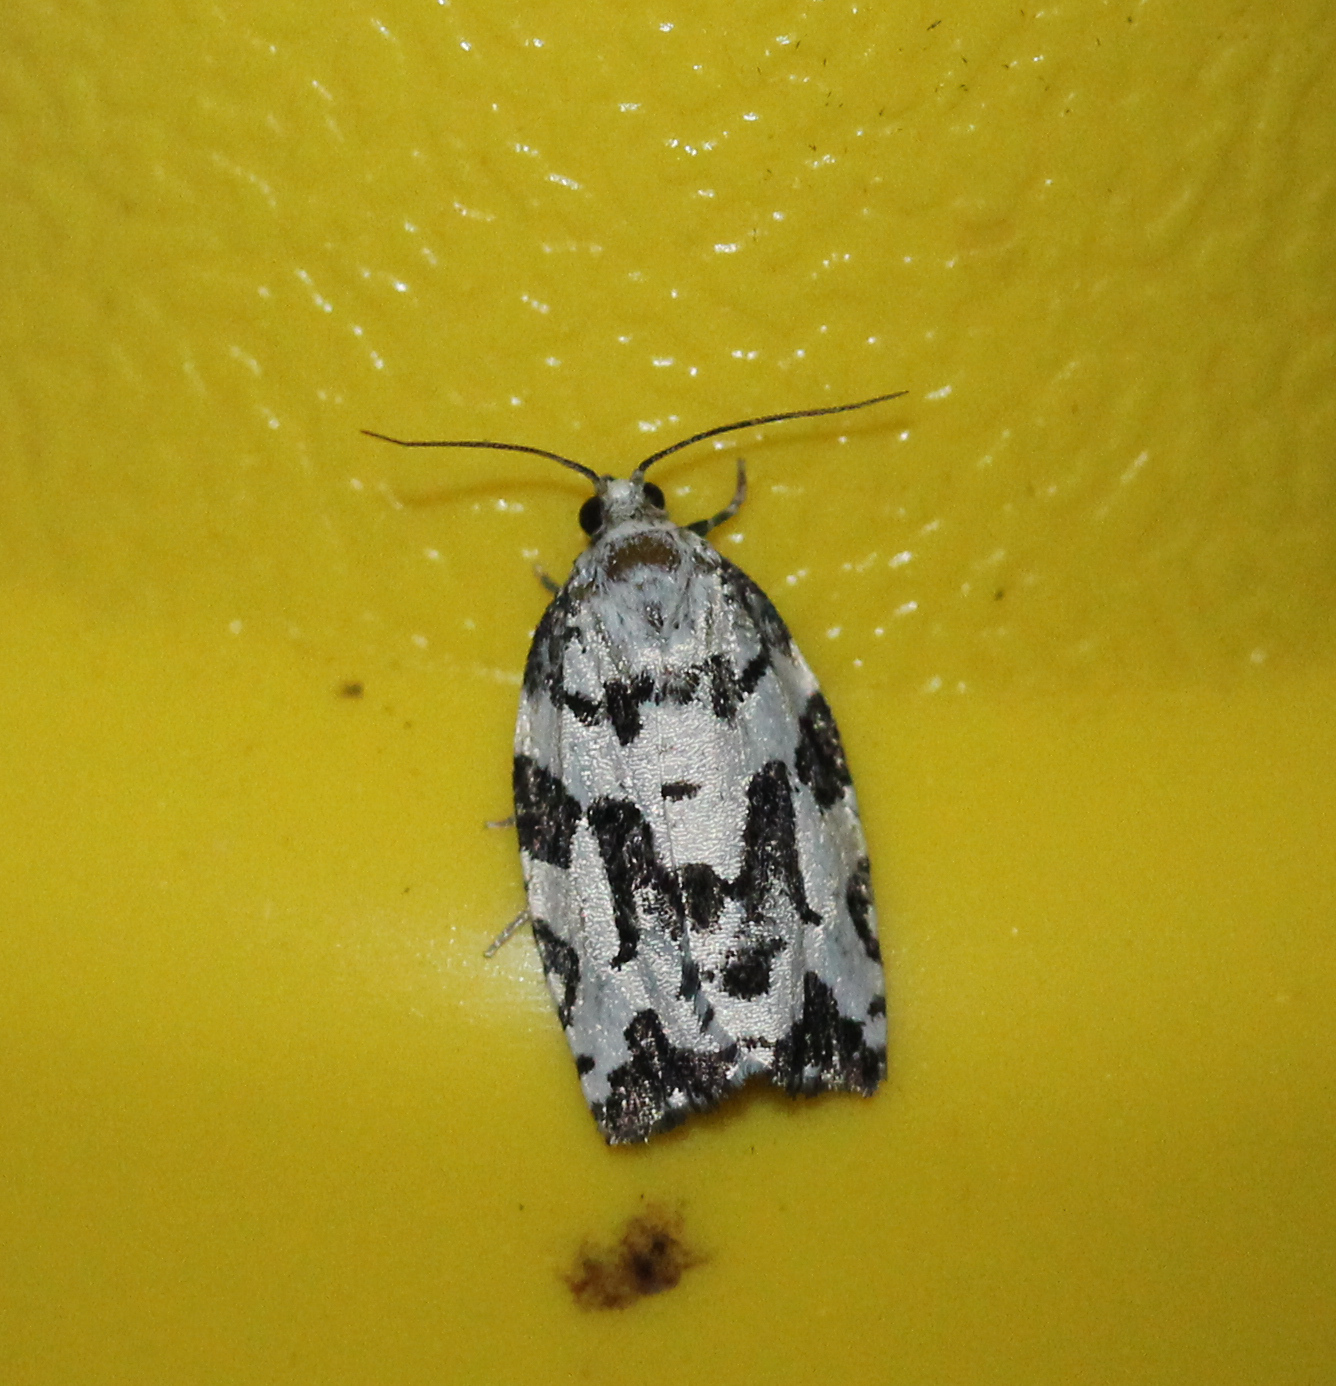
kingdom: Animalia
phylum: Arthropoda
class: Insecta
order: Lepidoptera
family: Tortricidae
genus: Archips
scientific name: Archips dissitana
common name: Boldly-marked archips moth
